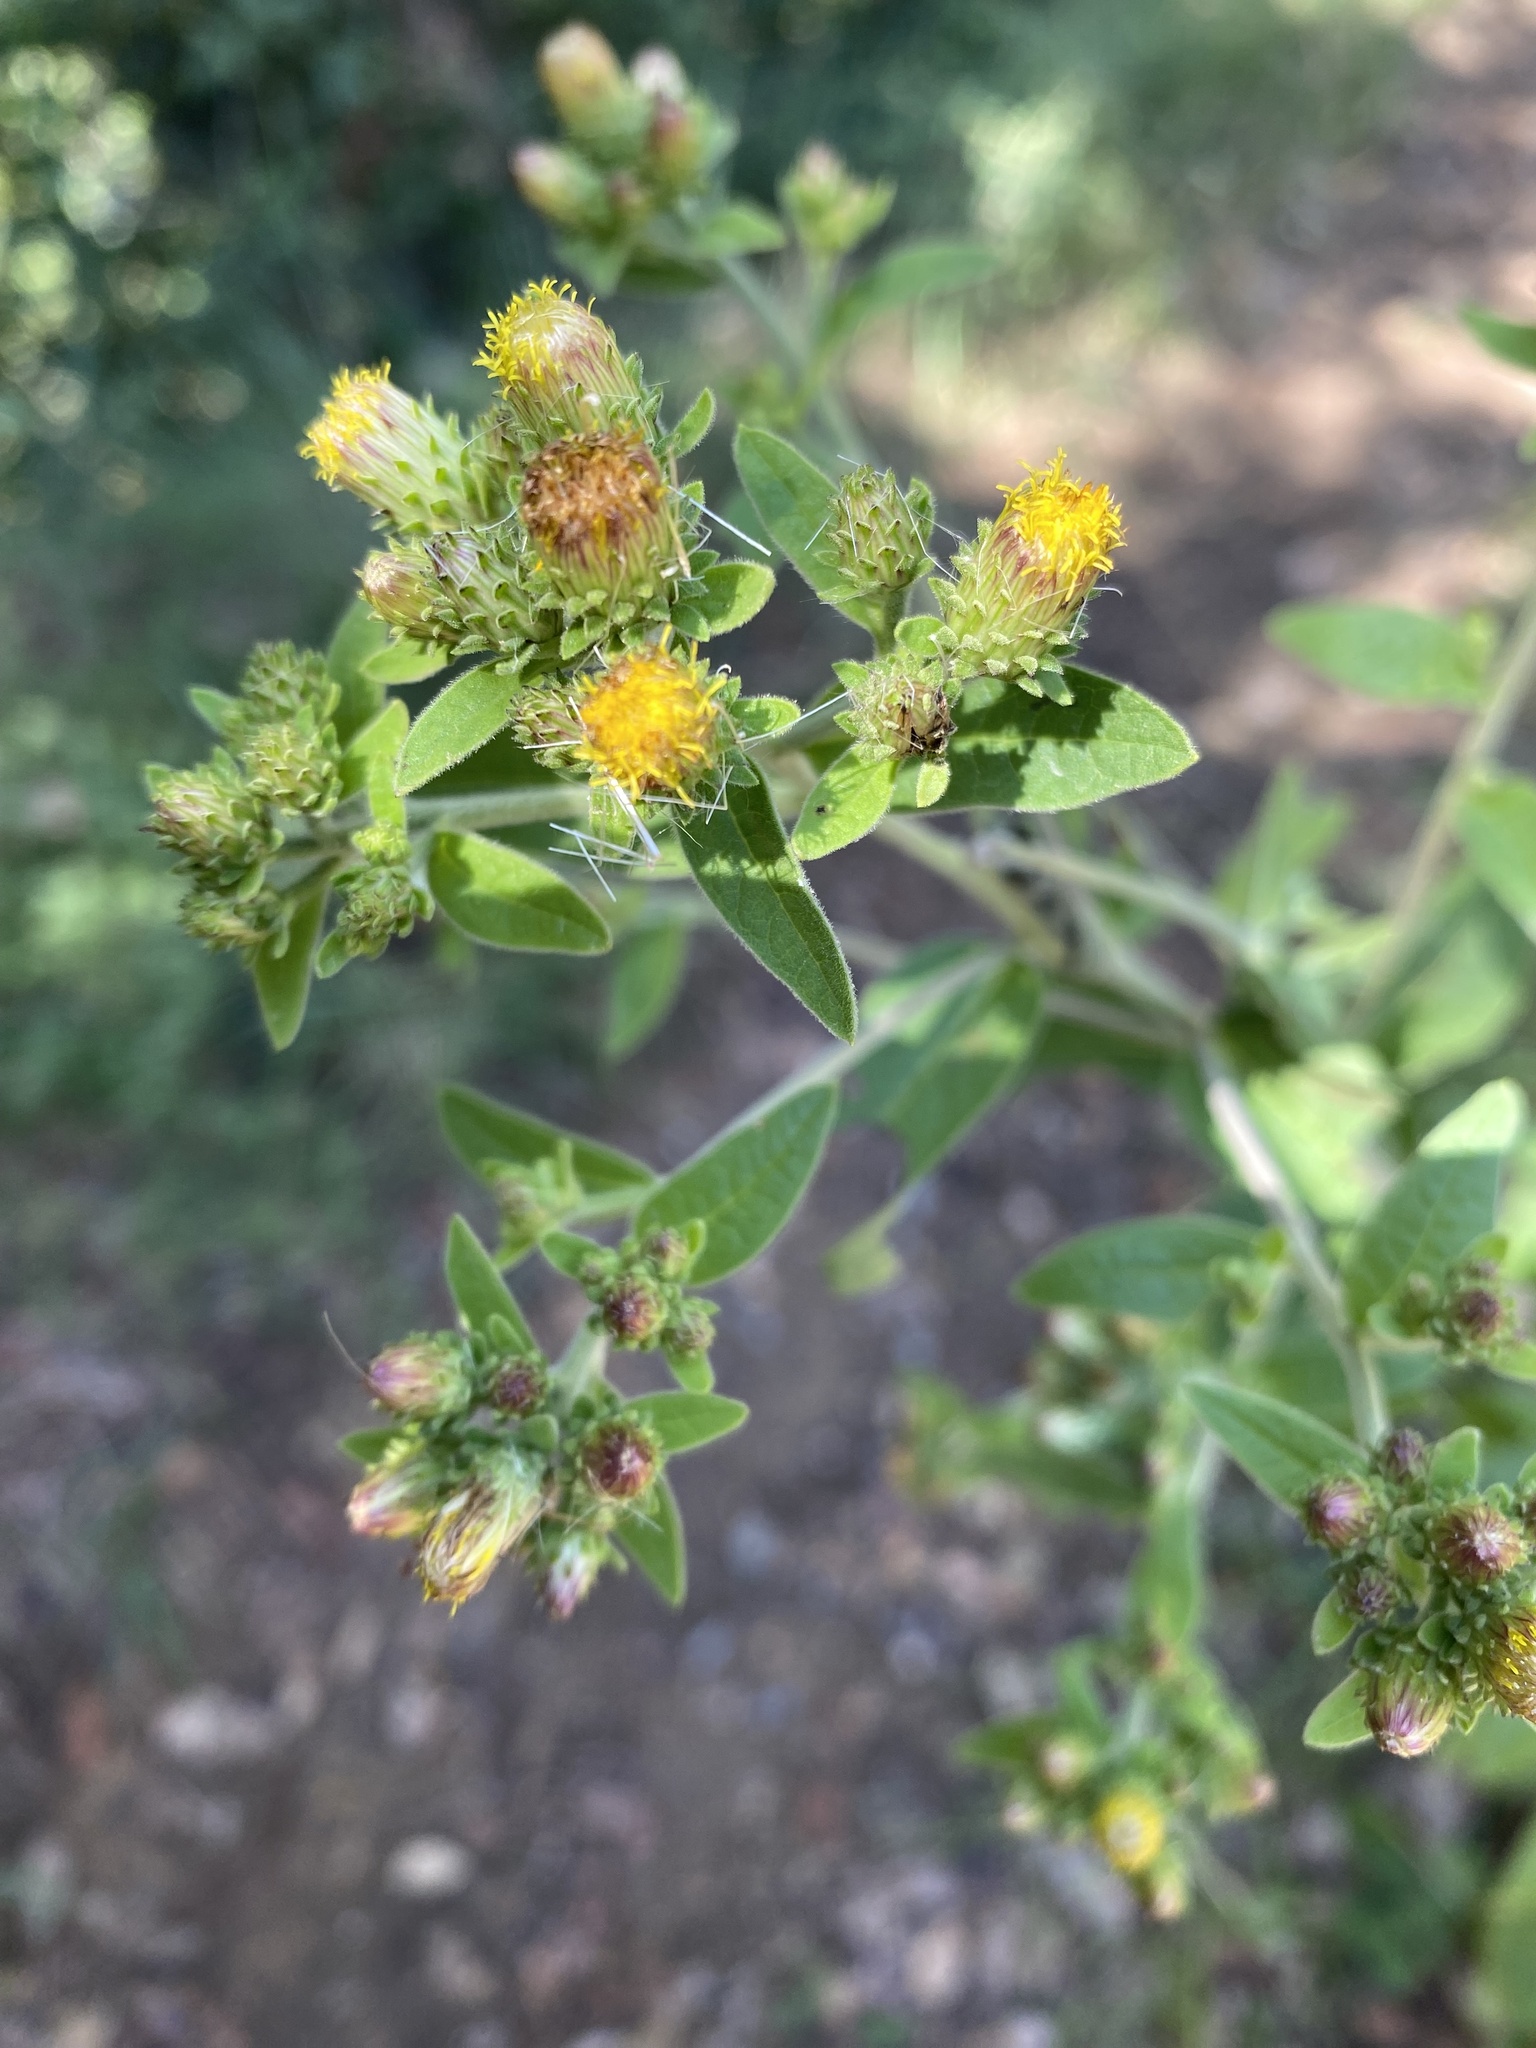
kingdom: Plantae
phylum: Tracheophyta
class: Magnoliopsida
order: Asterales
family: Asteraceae
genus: Pentanema
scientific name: Pentanema squarrosum
